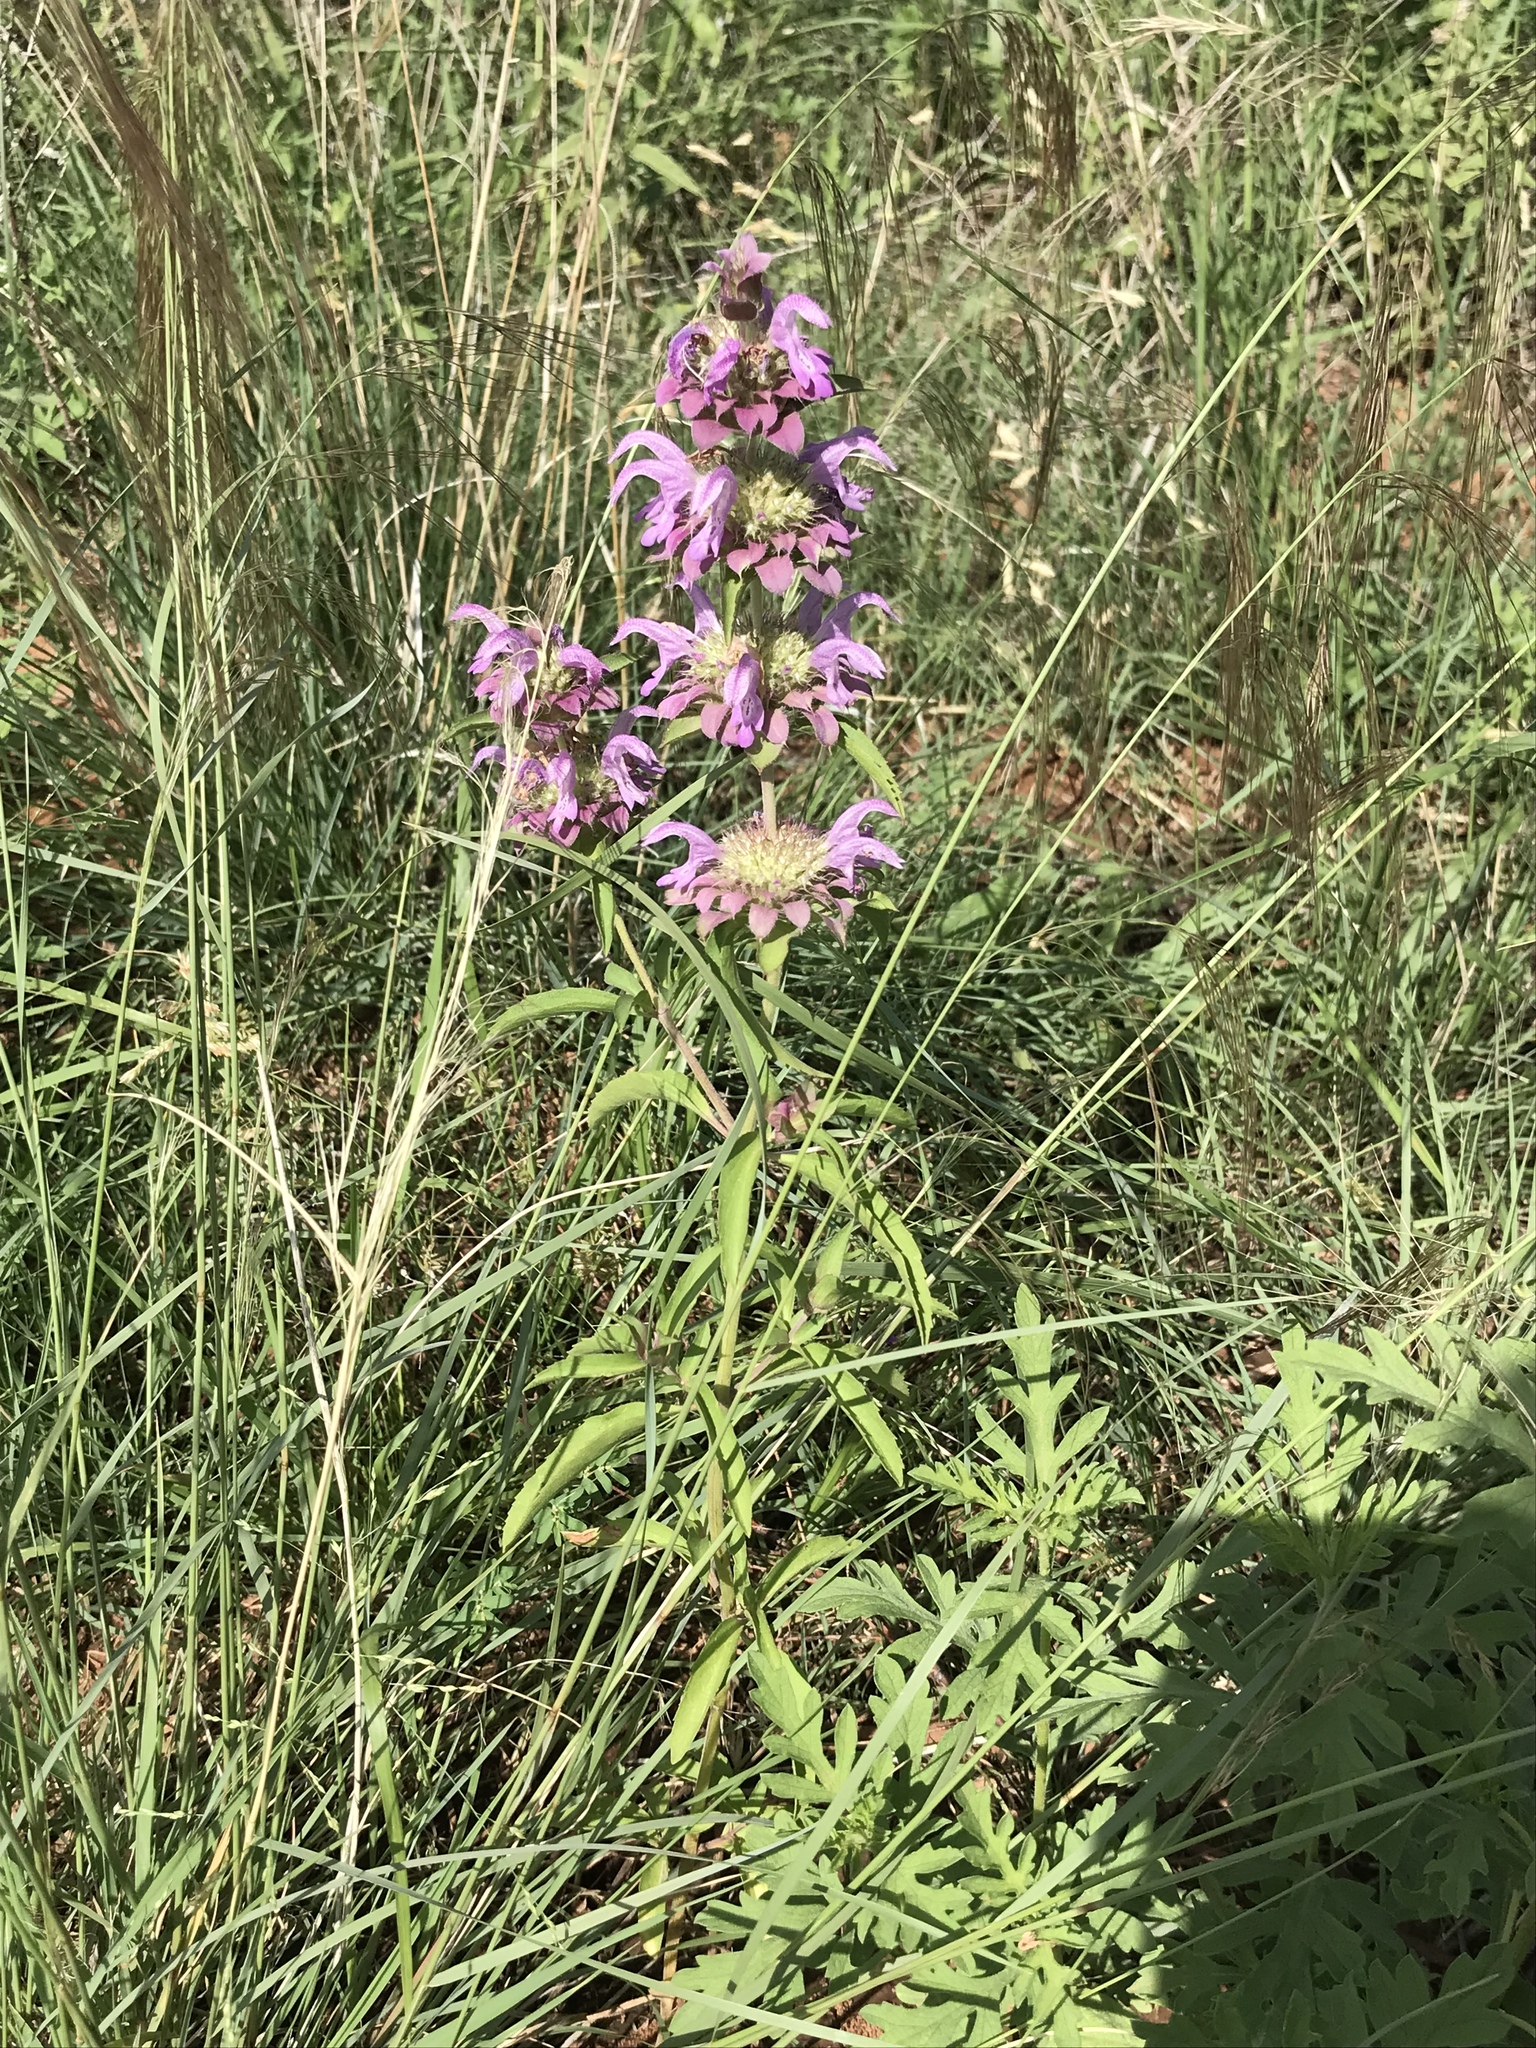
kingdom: Plantae
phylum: Tracheophyta
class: Magnoliopsida
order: Lamiales
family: Lamiaceae
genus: Monarda
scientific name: Monarda citriodora
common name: Lemon beebalm
